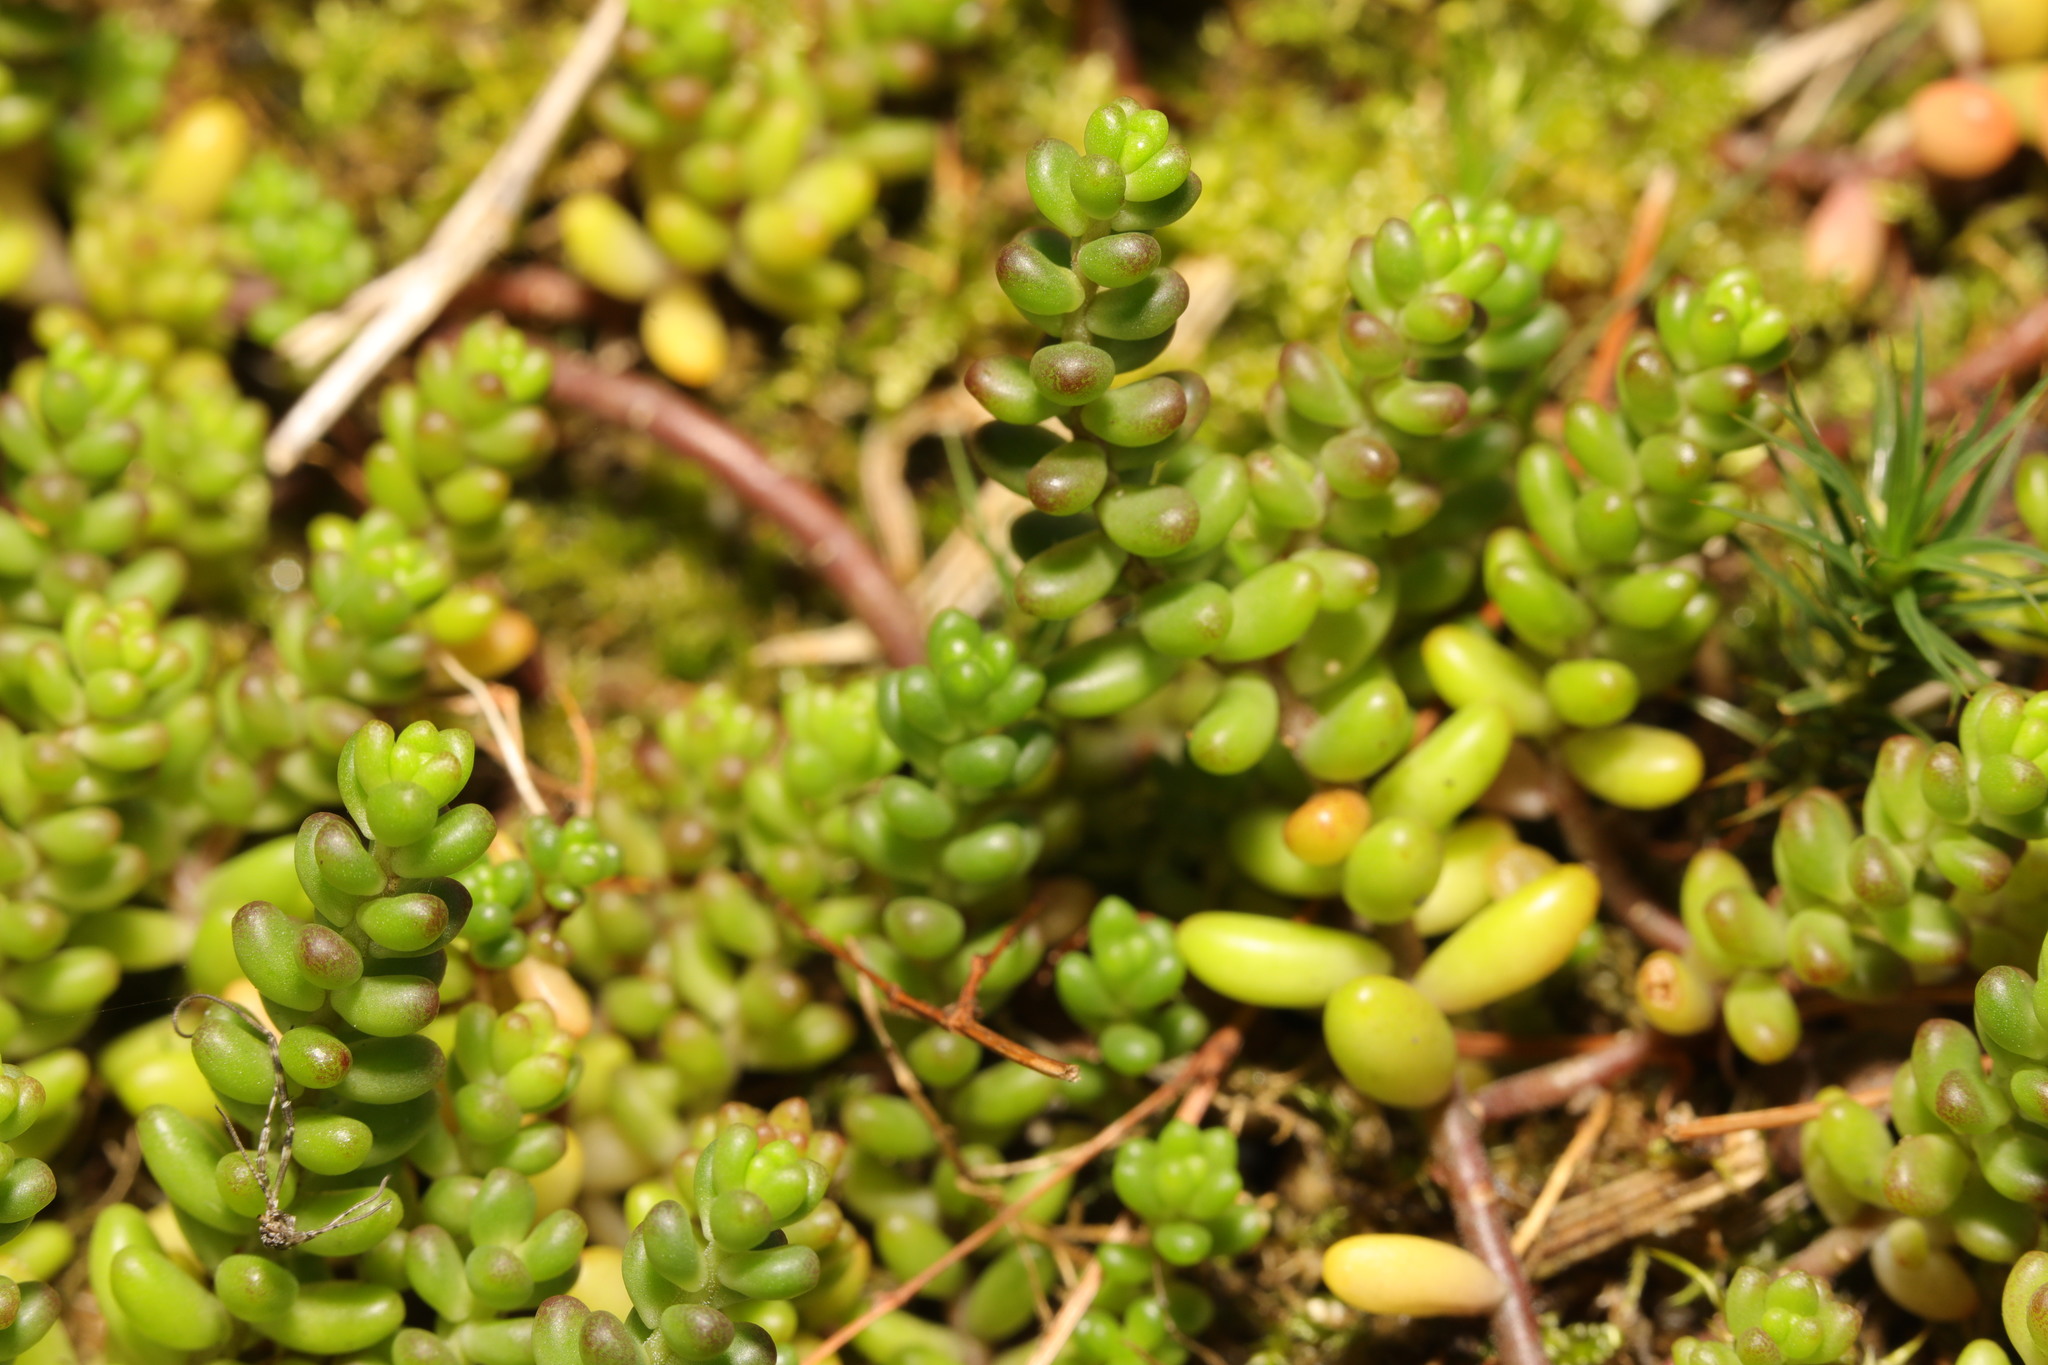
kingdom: Plantae
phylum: Tracheophyta
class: Magnoliopsida
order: Saxifragales
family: Crassulaceae
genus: Sedum
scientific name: Sedum album
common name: White stonecrop
